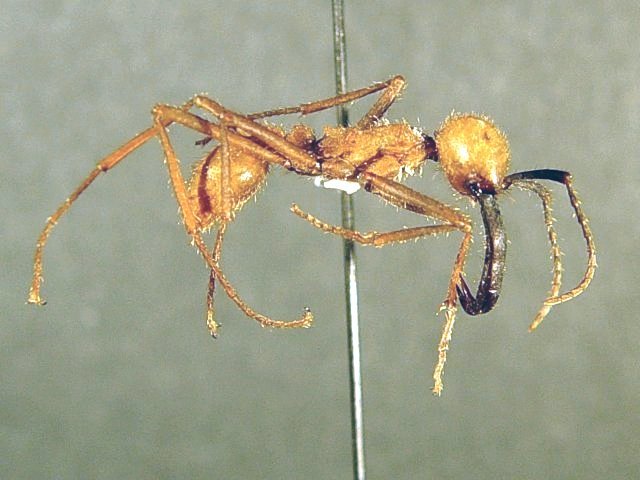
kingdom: Animalia
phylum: Arthropoda
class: Insecta
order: Hymenoptera
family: Formicidae
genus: Eciton
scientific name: Eciton burchellii
